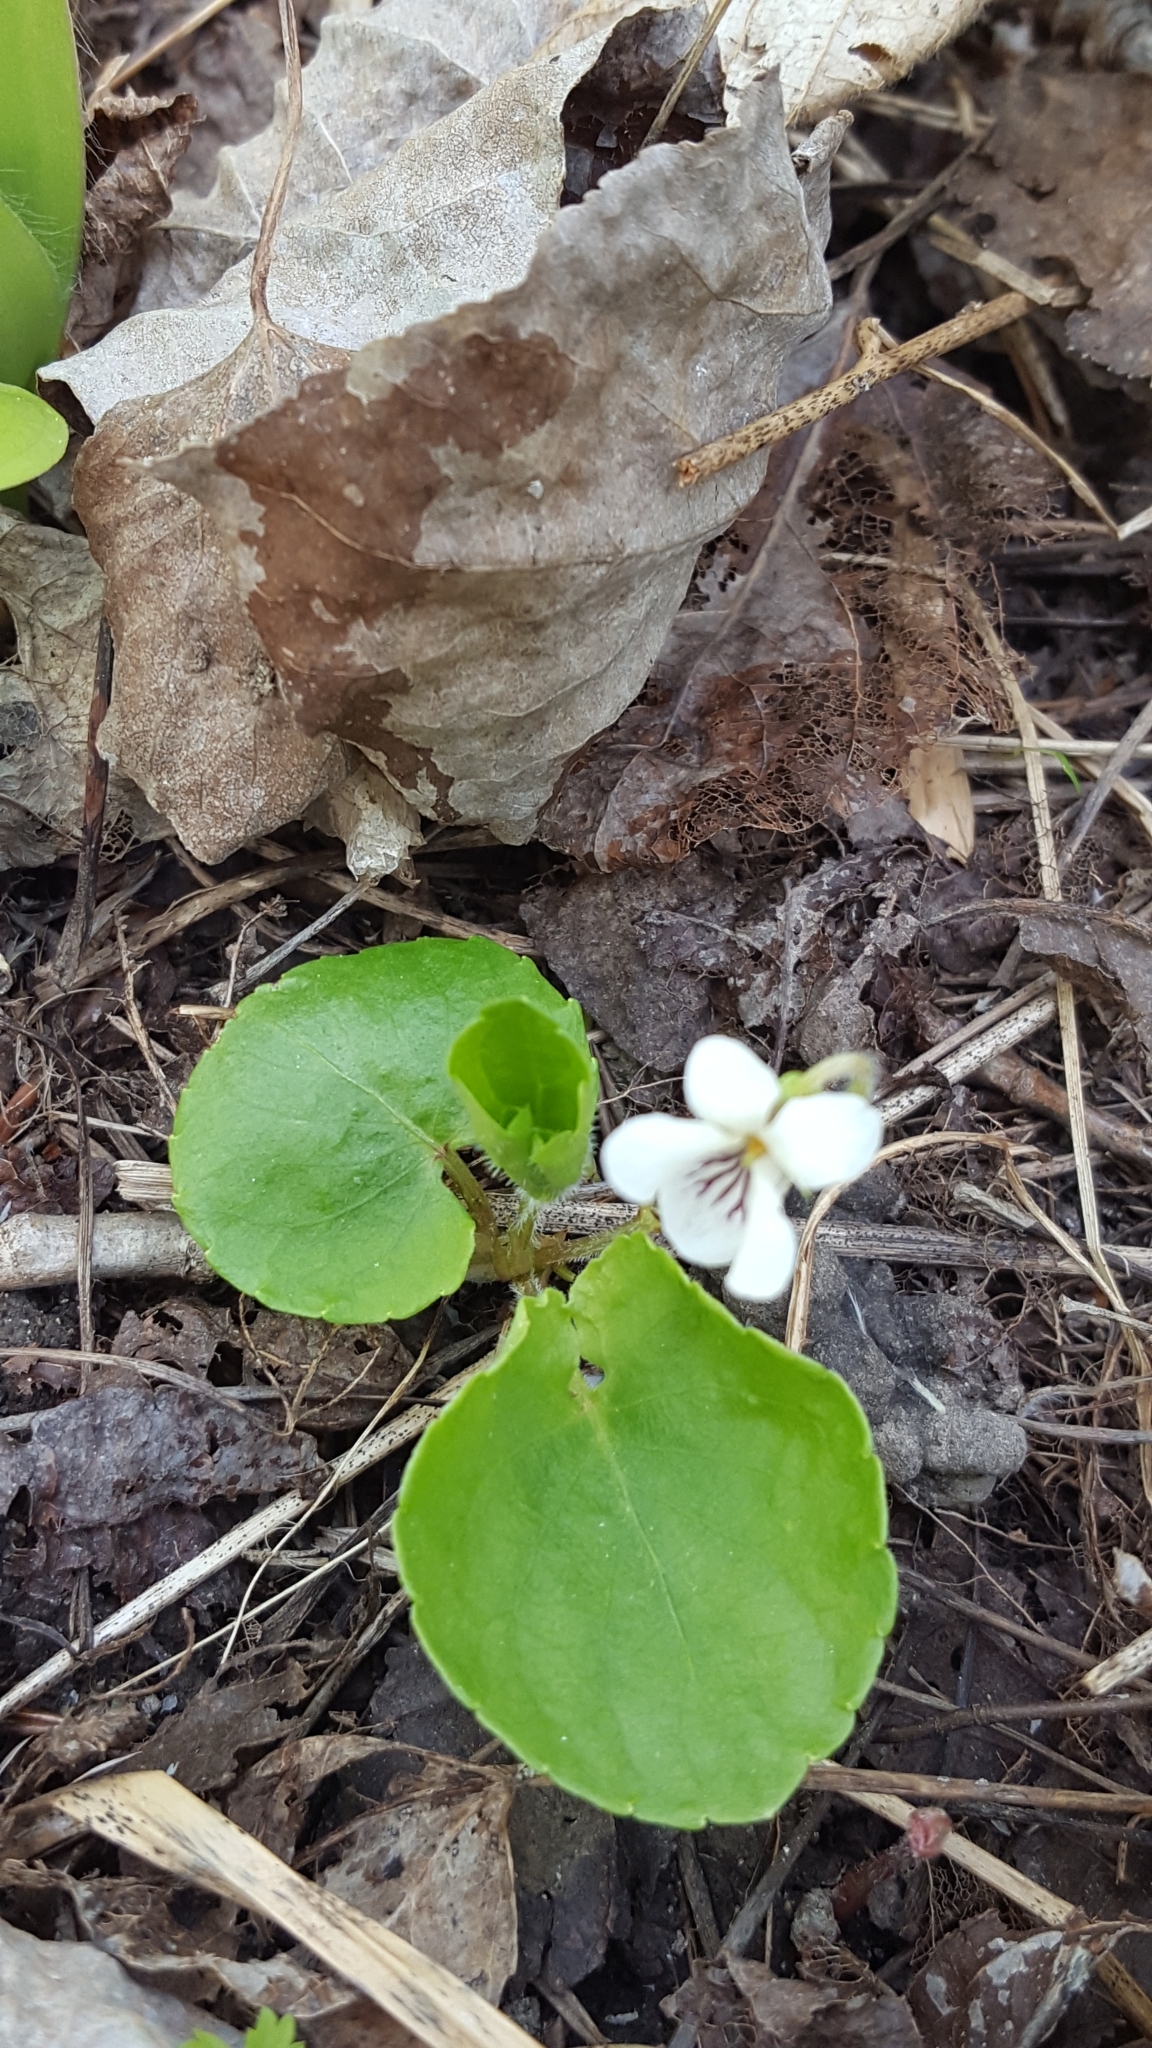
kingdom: Plantae
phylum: Tracheophyta
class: Magnoliopsida
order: Malpighiales
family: Violaceae
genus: Viola
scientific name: Viola renifolia
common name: Kidney-leaf violet
